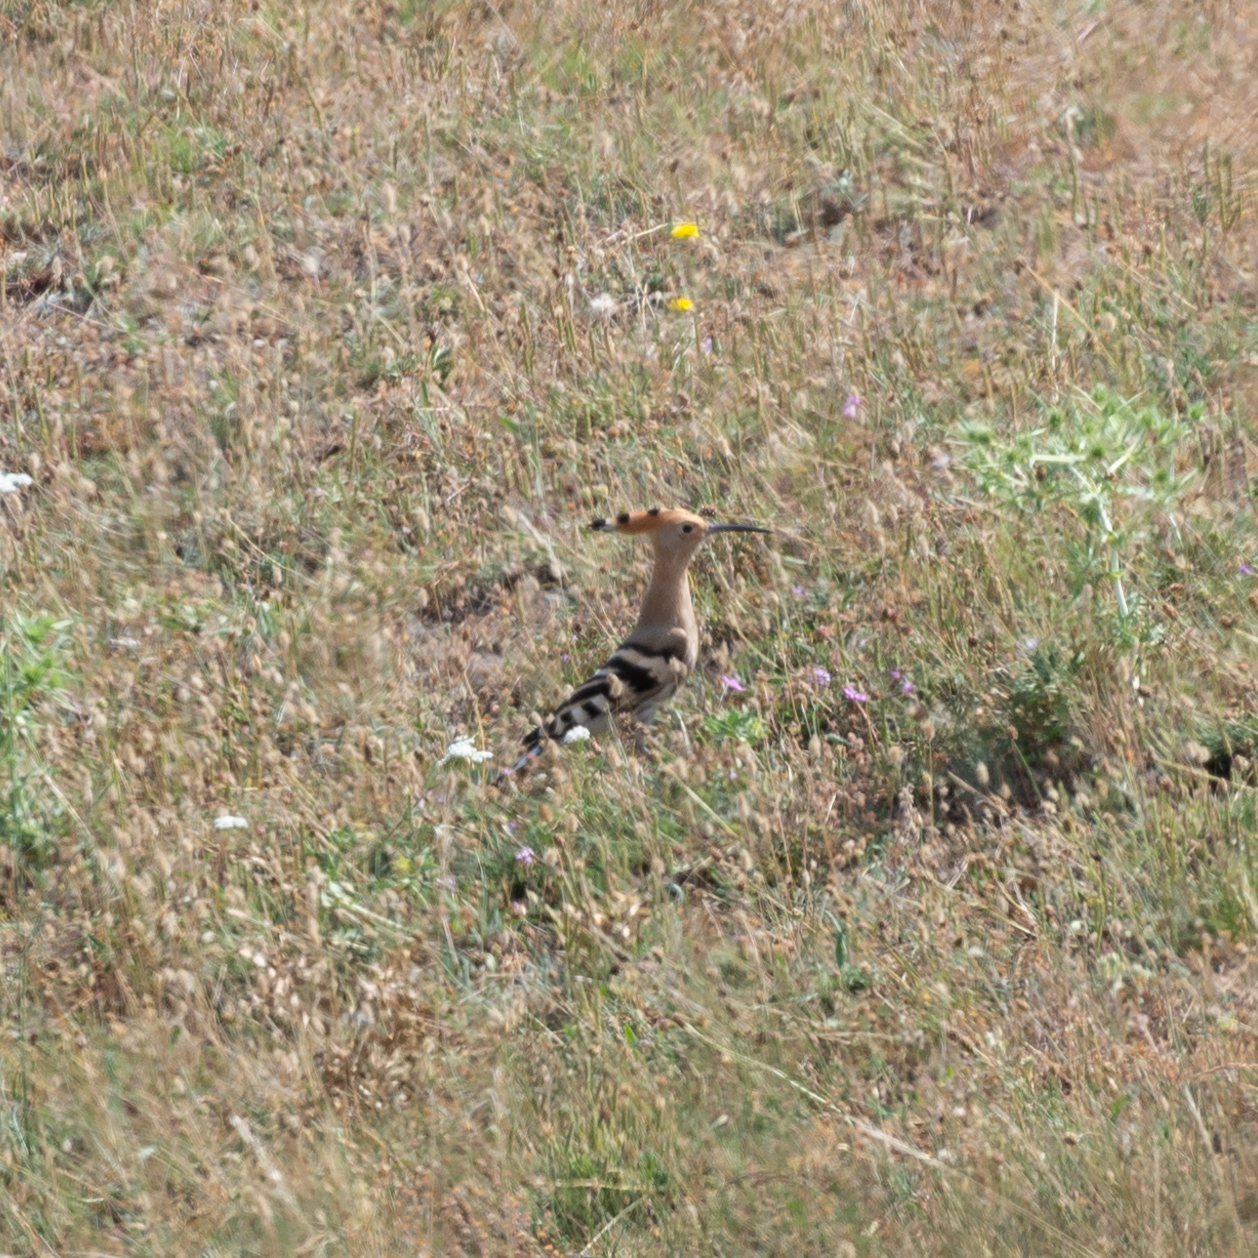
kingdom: Animalia
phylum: Chordata
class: Aves
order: Bucerotiformes
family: Upupidae
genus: Upupa
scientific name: Upupa epops
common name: Eurasian hoopoe
